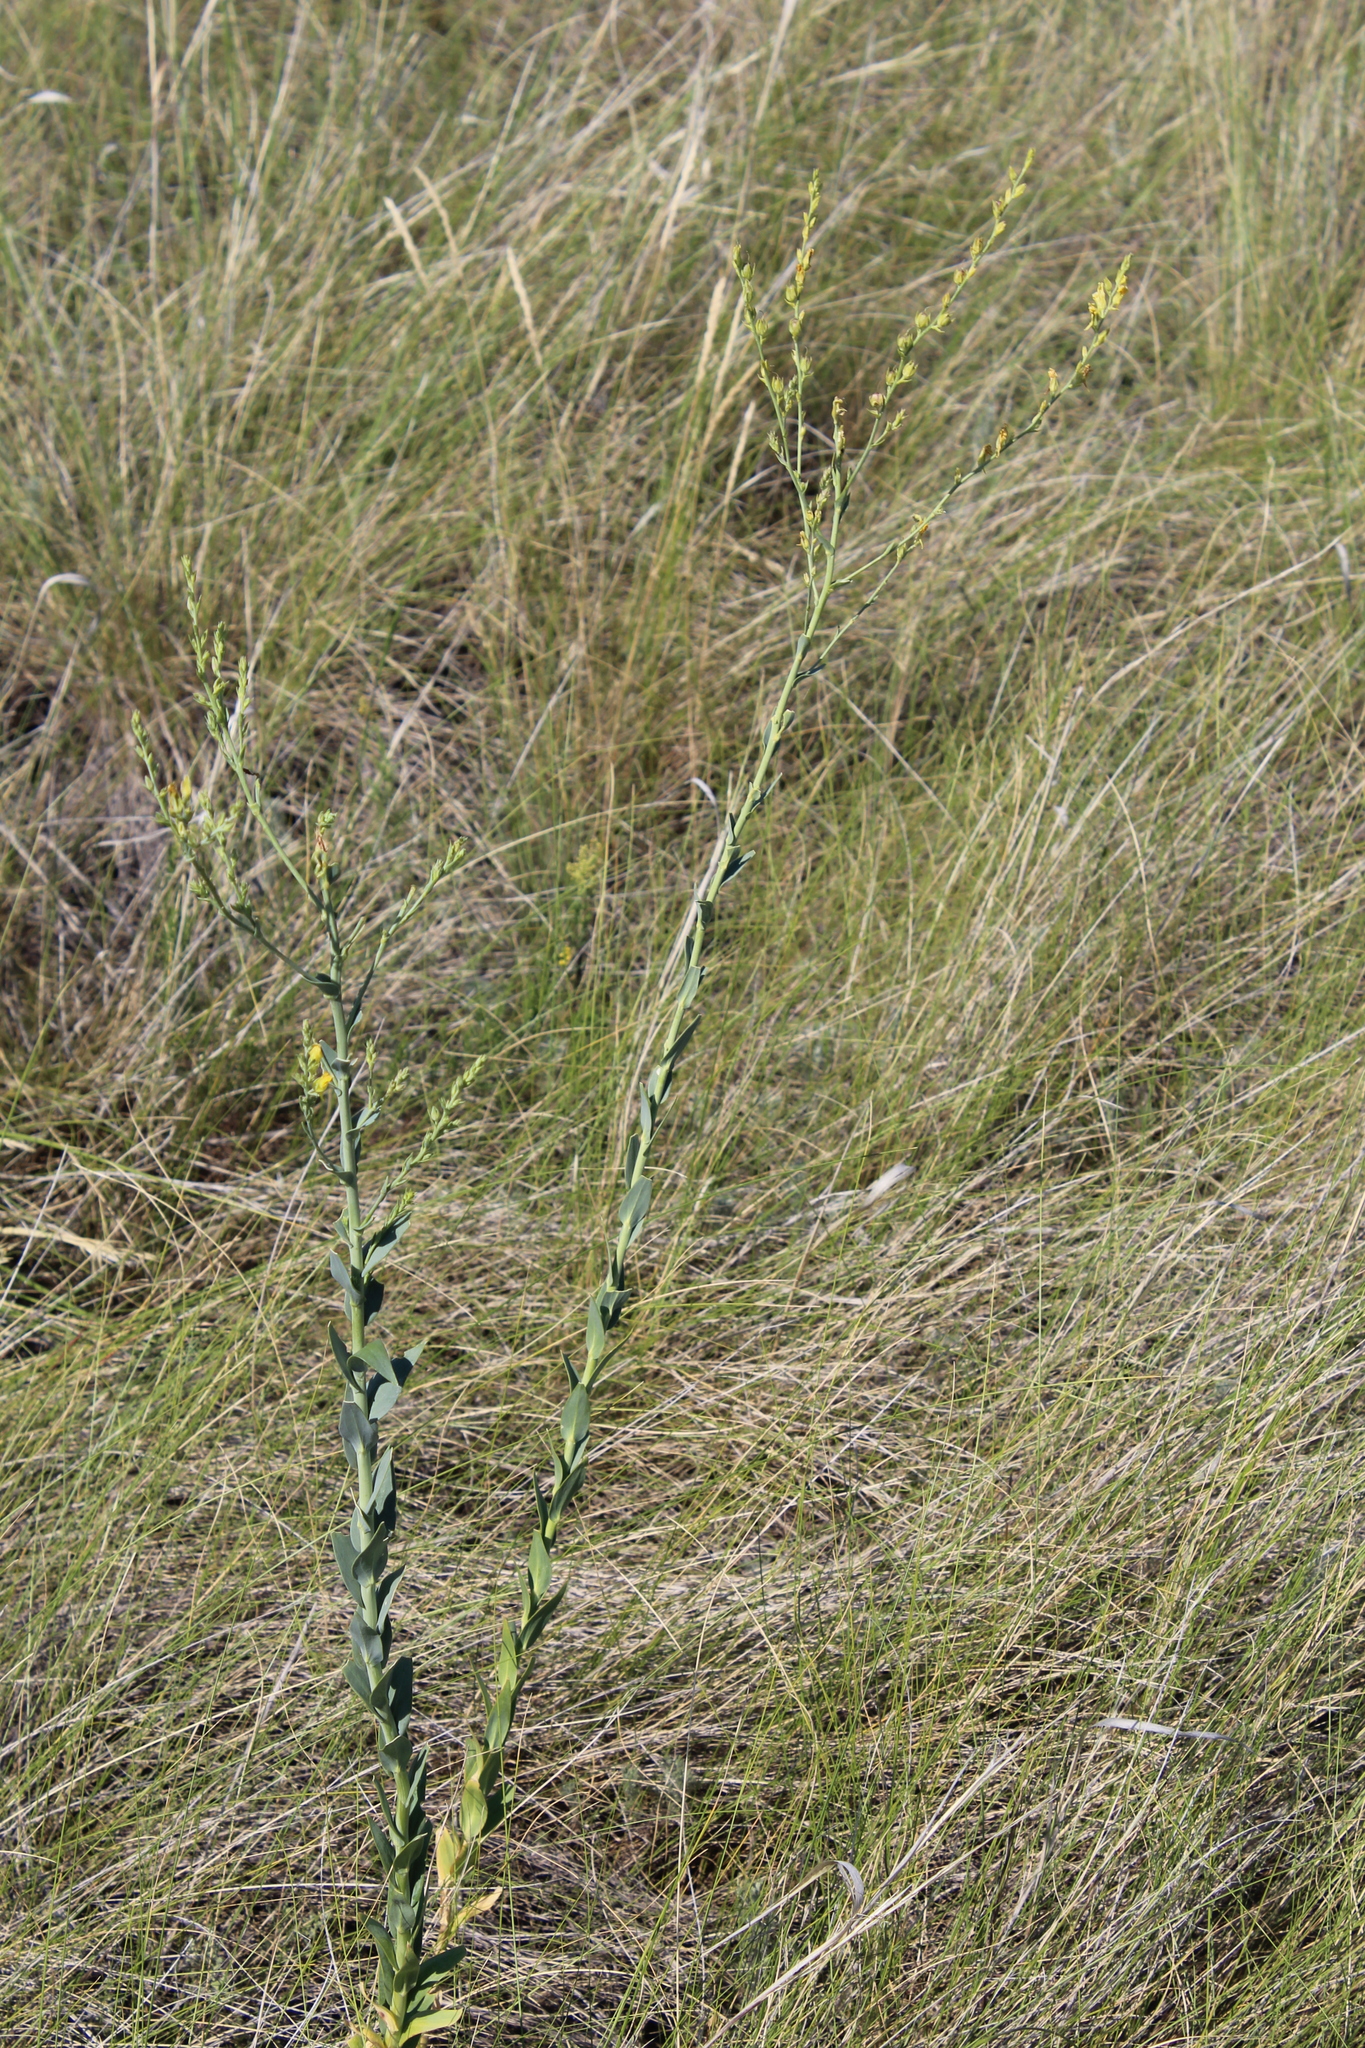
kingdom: Plantae
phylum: Tracheophyta
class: Magnoliopsida
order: Lamiales
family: Plantaginaceae
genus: Linaria
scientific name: Linaria genistifolia
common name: Broomleaf toadflax
